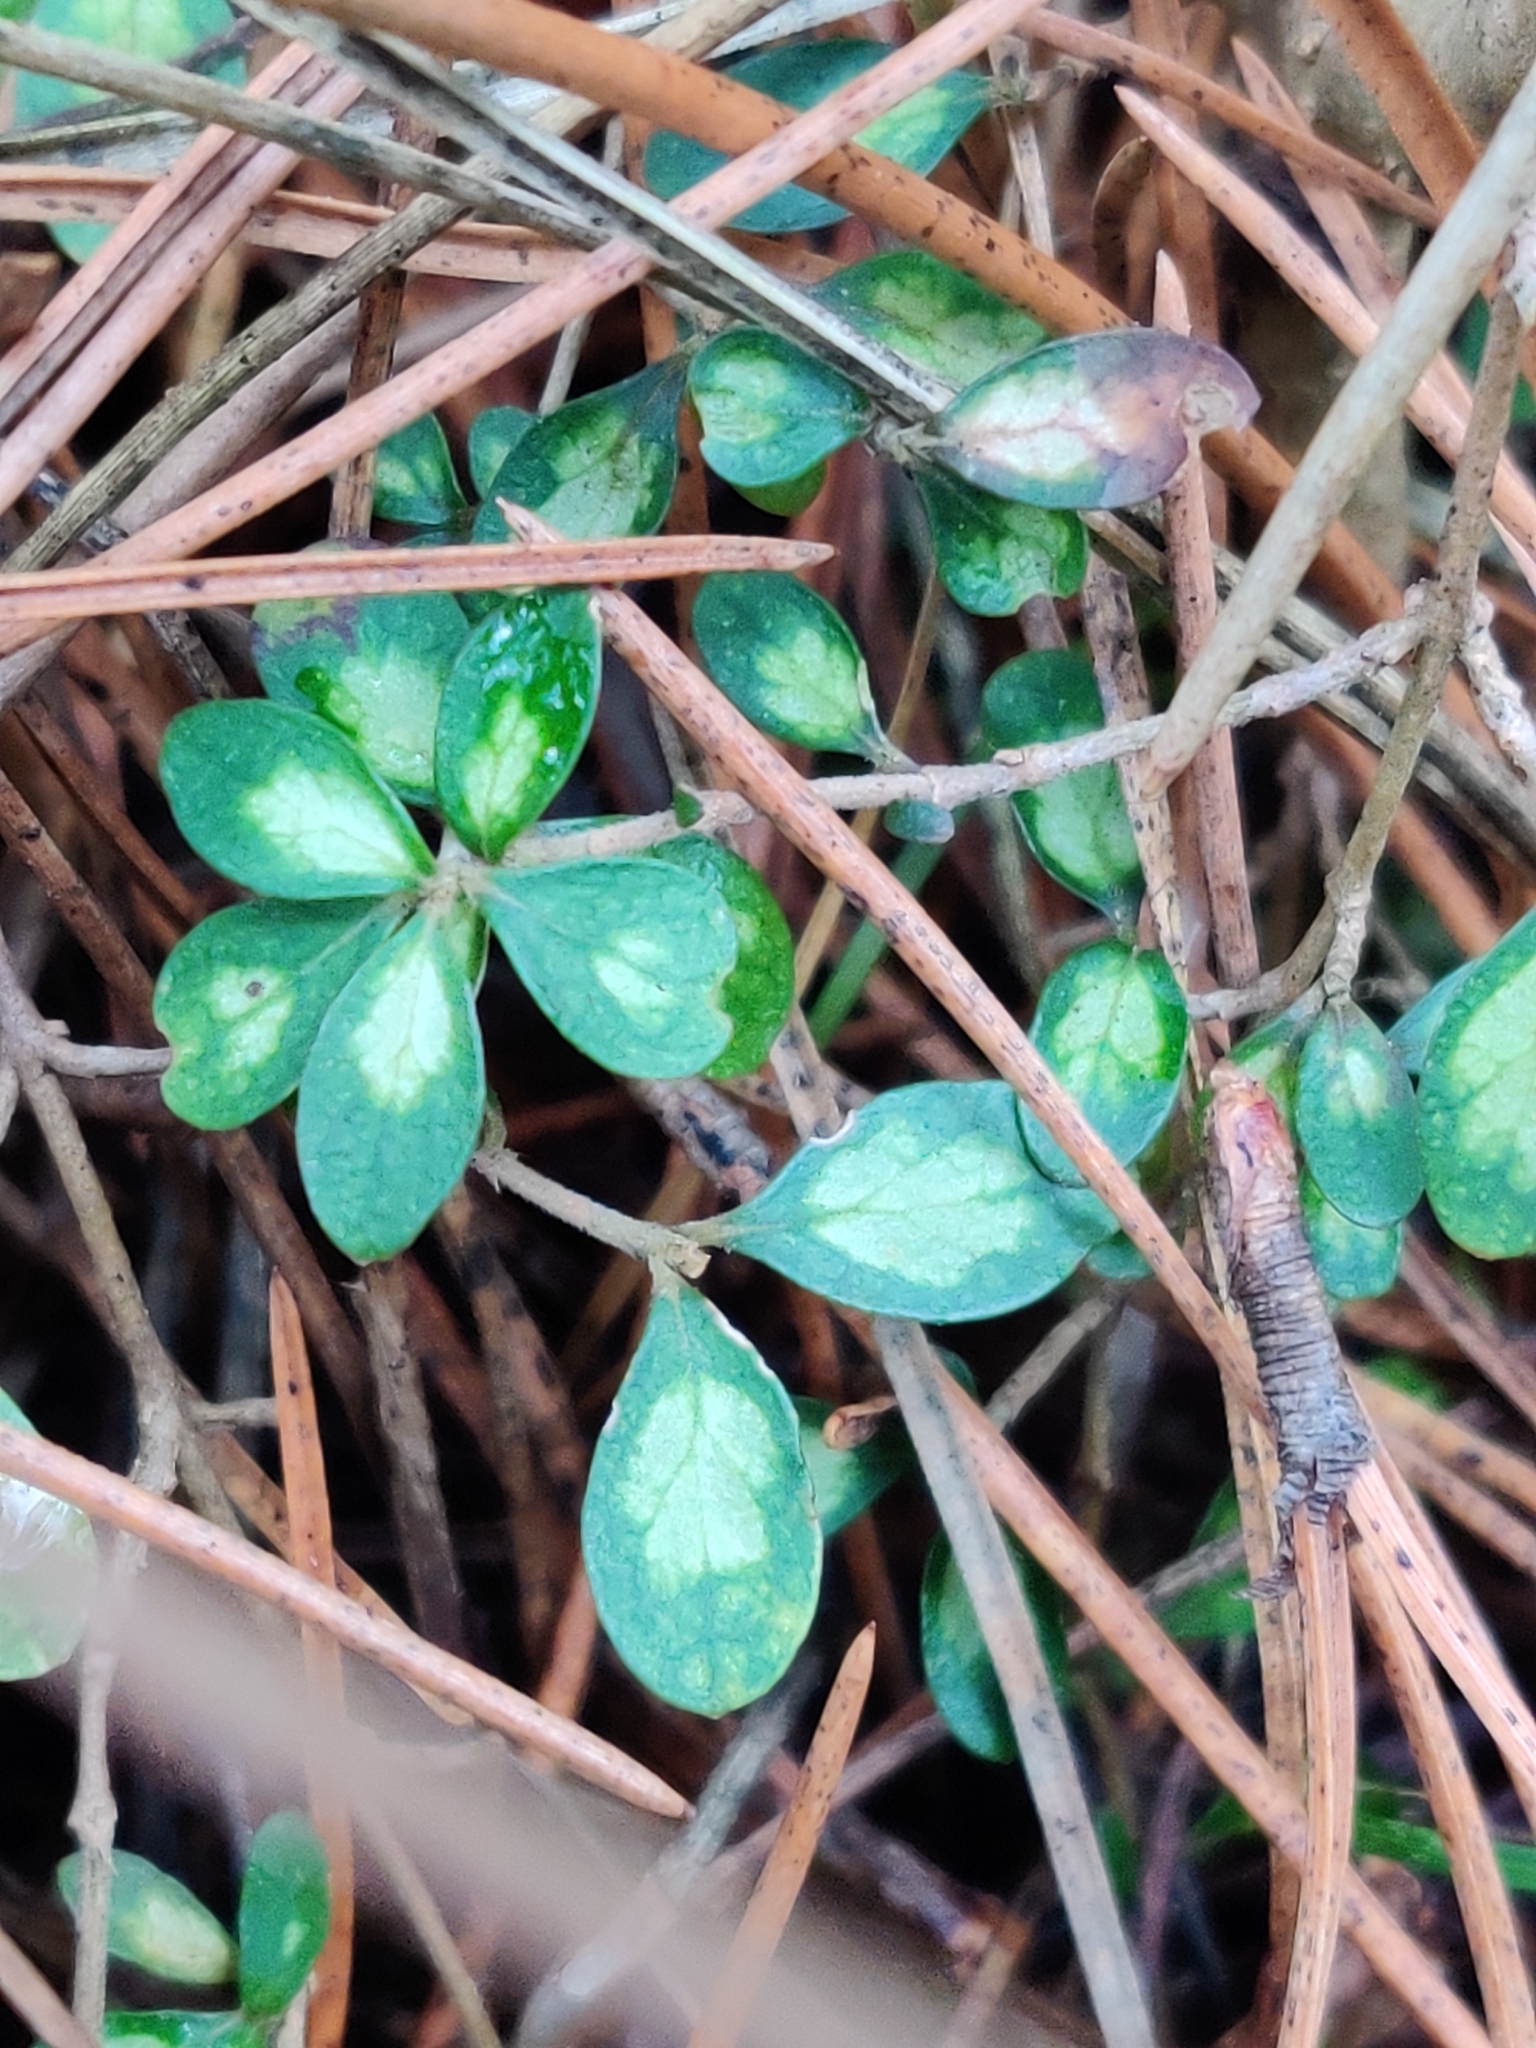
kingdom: Plantae
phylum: Tracheophyta
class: Magnoliopsida
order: Gentianales
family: Rubiaceae
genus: Coprosma
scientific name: Coprosma dumosa
